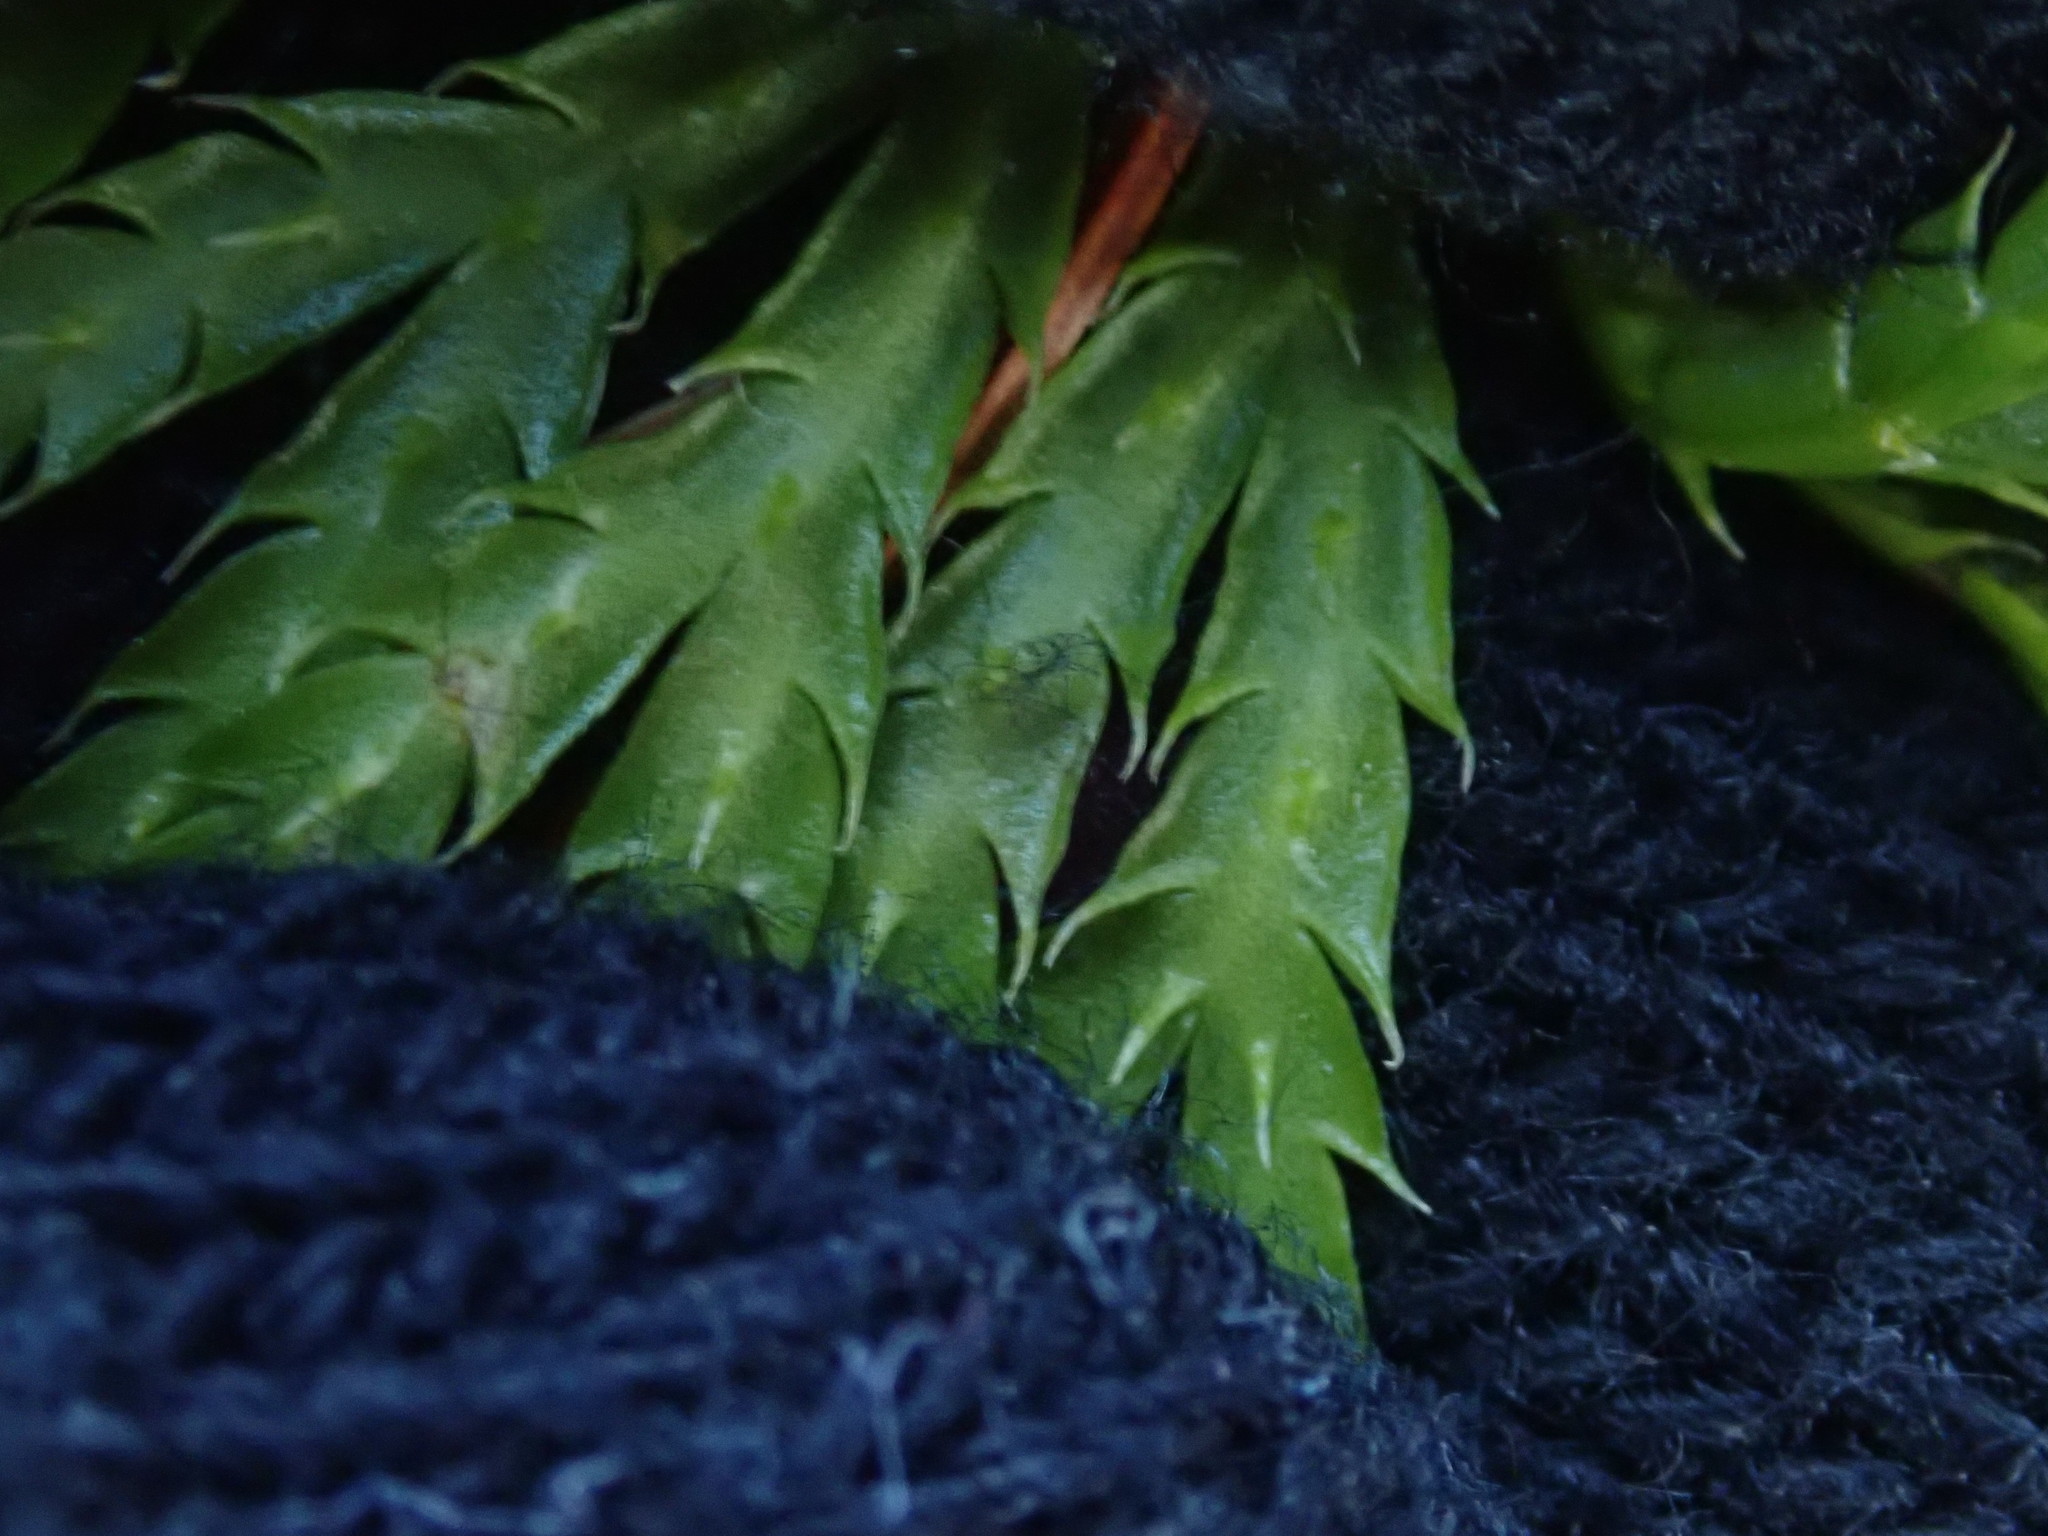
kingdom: Plantae
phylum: Tracheophyta
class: Lycopodiopsida
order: Lycopodiales
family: Lycopodiaceae
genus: Diphasiastrum
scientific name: Diphasiastrum digitatum
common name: Southern running-pine
